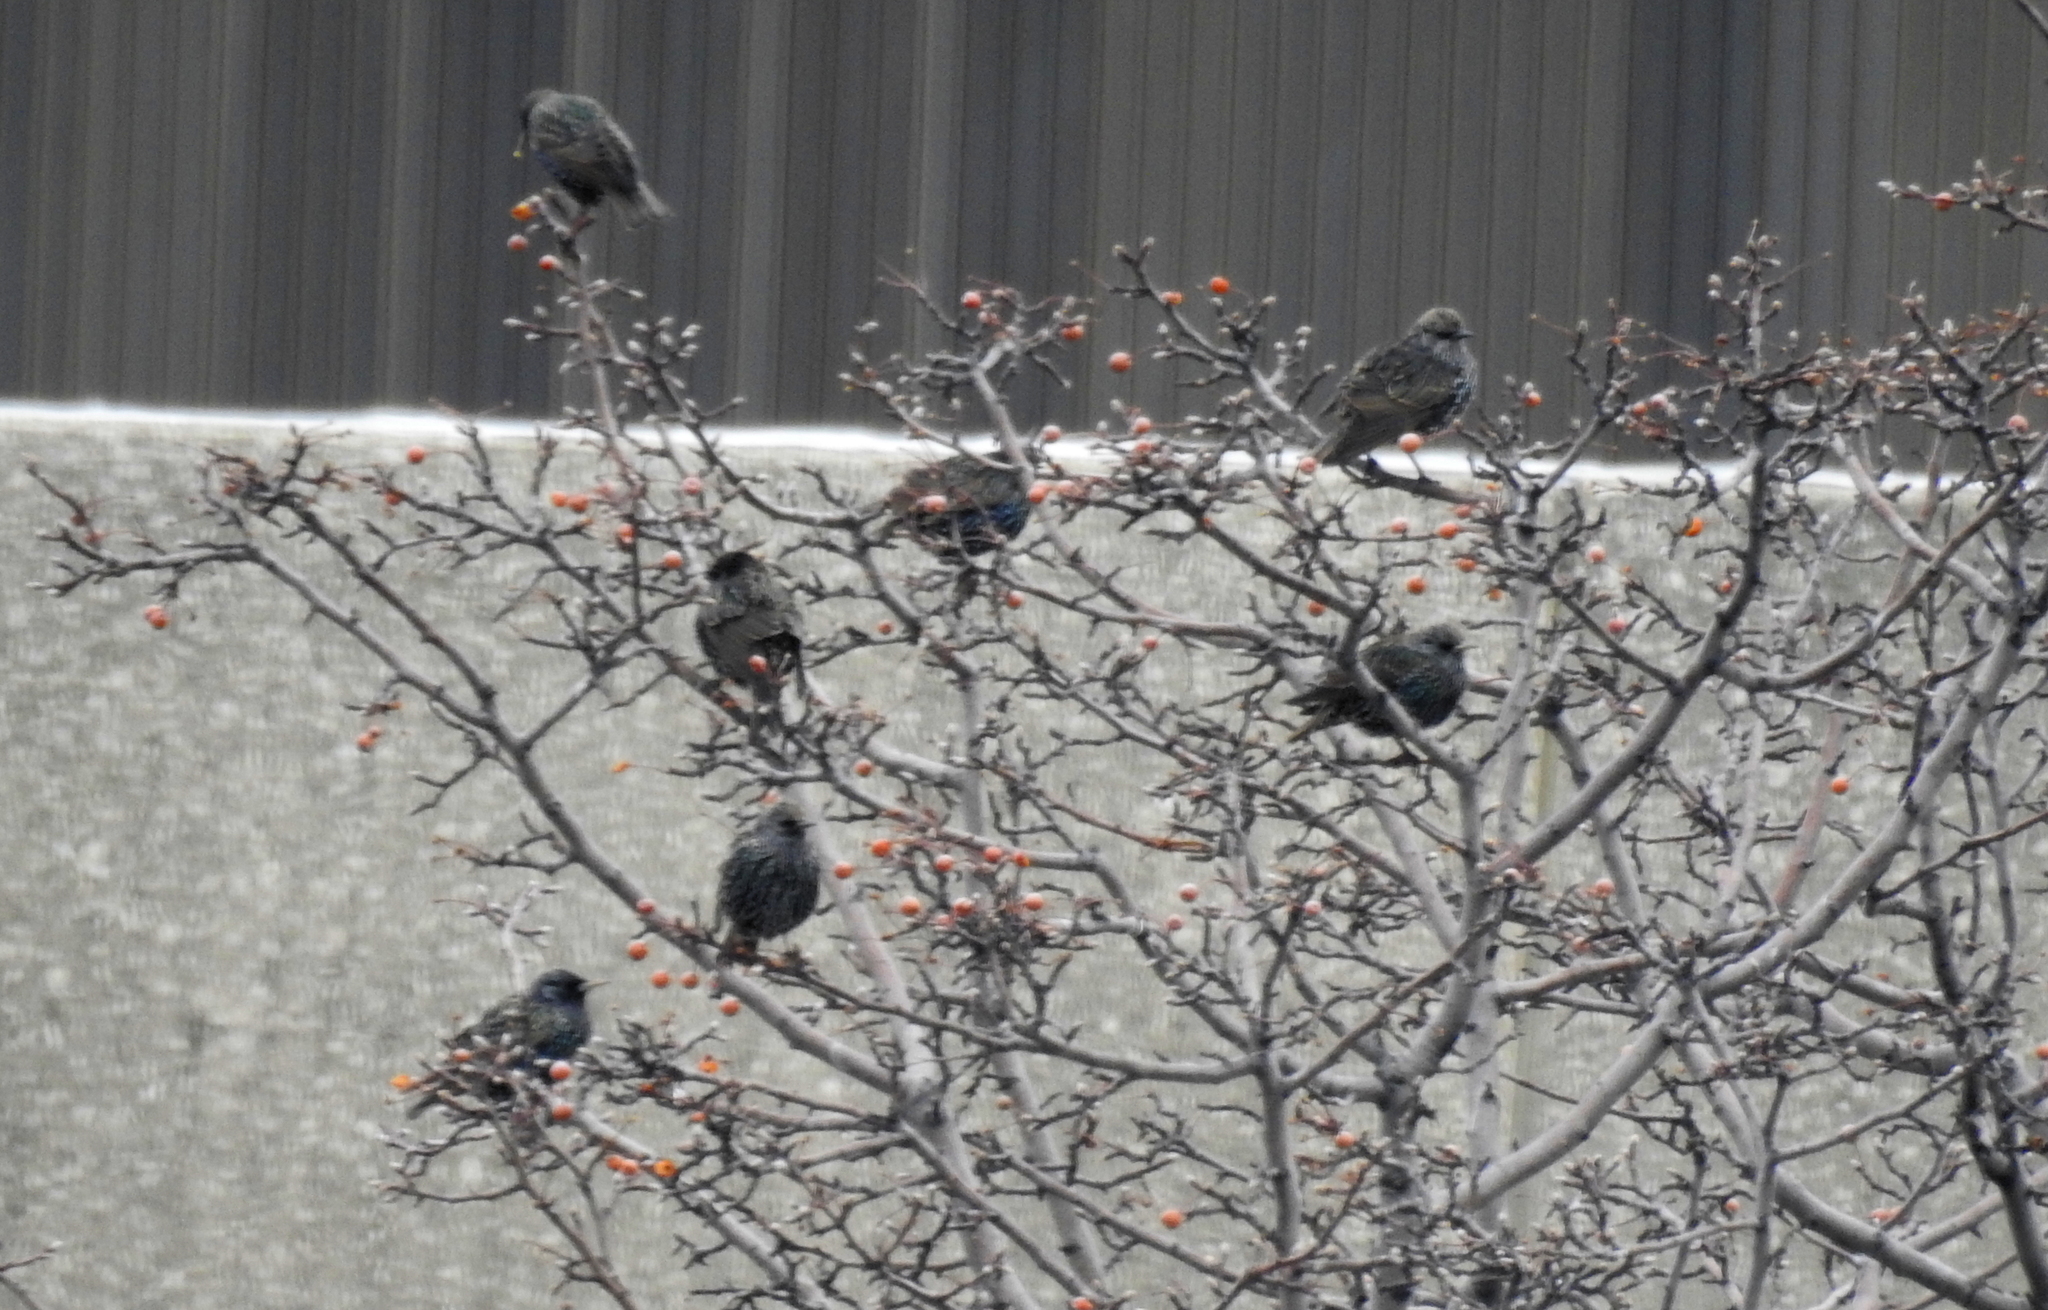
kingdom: Animalia
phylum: Chordata
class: Aves
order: Passeriformes
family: Sturnidae
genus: Sturnus
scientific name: Sturnus vulgaris
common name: Common starling
